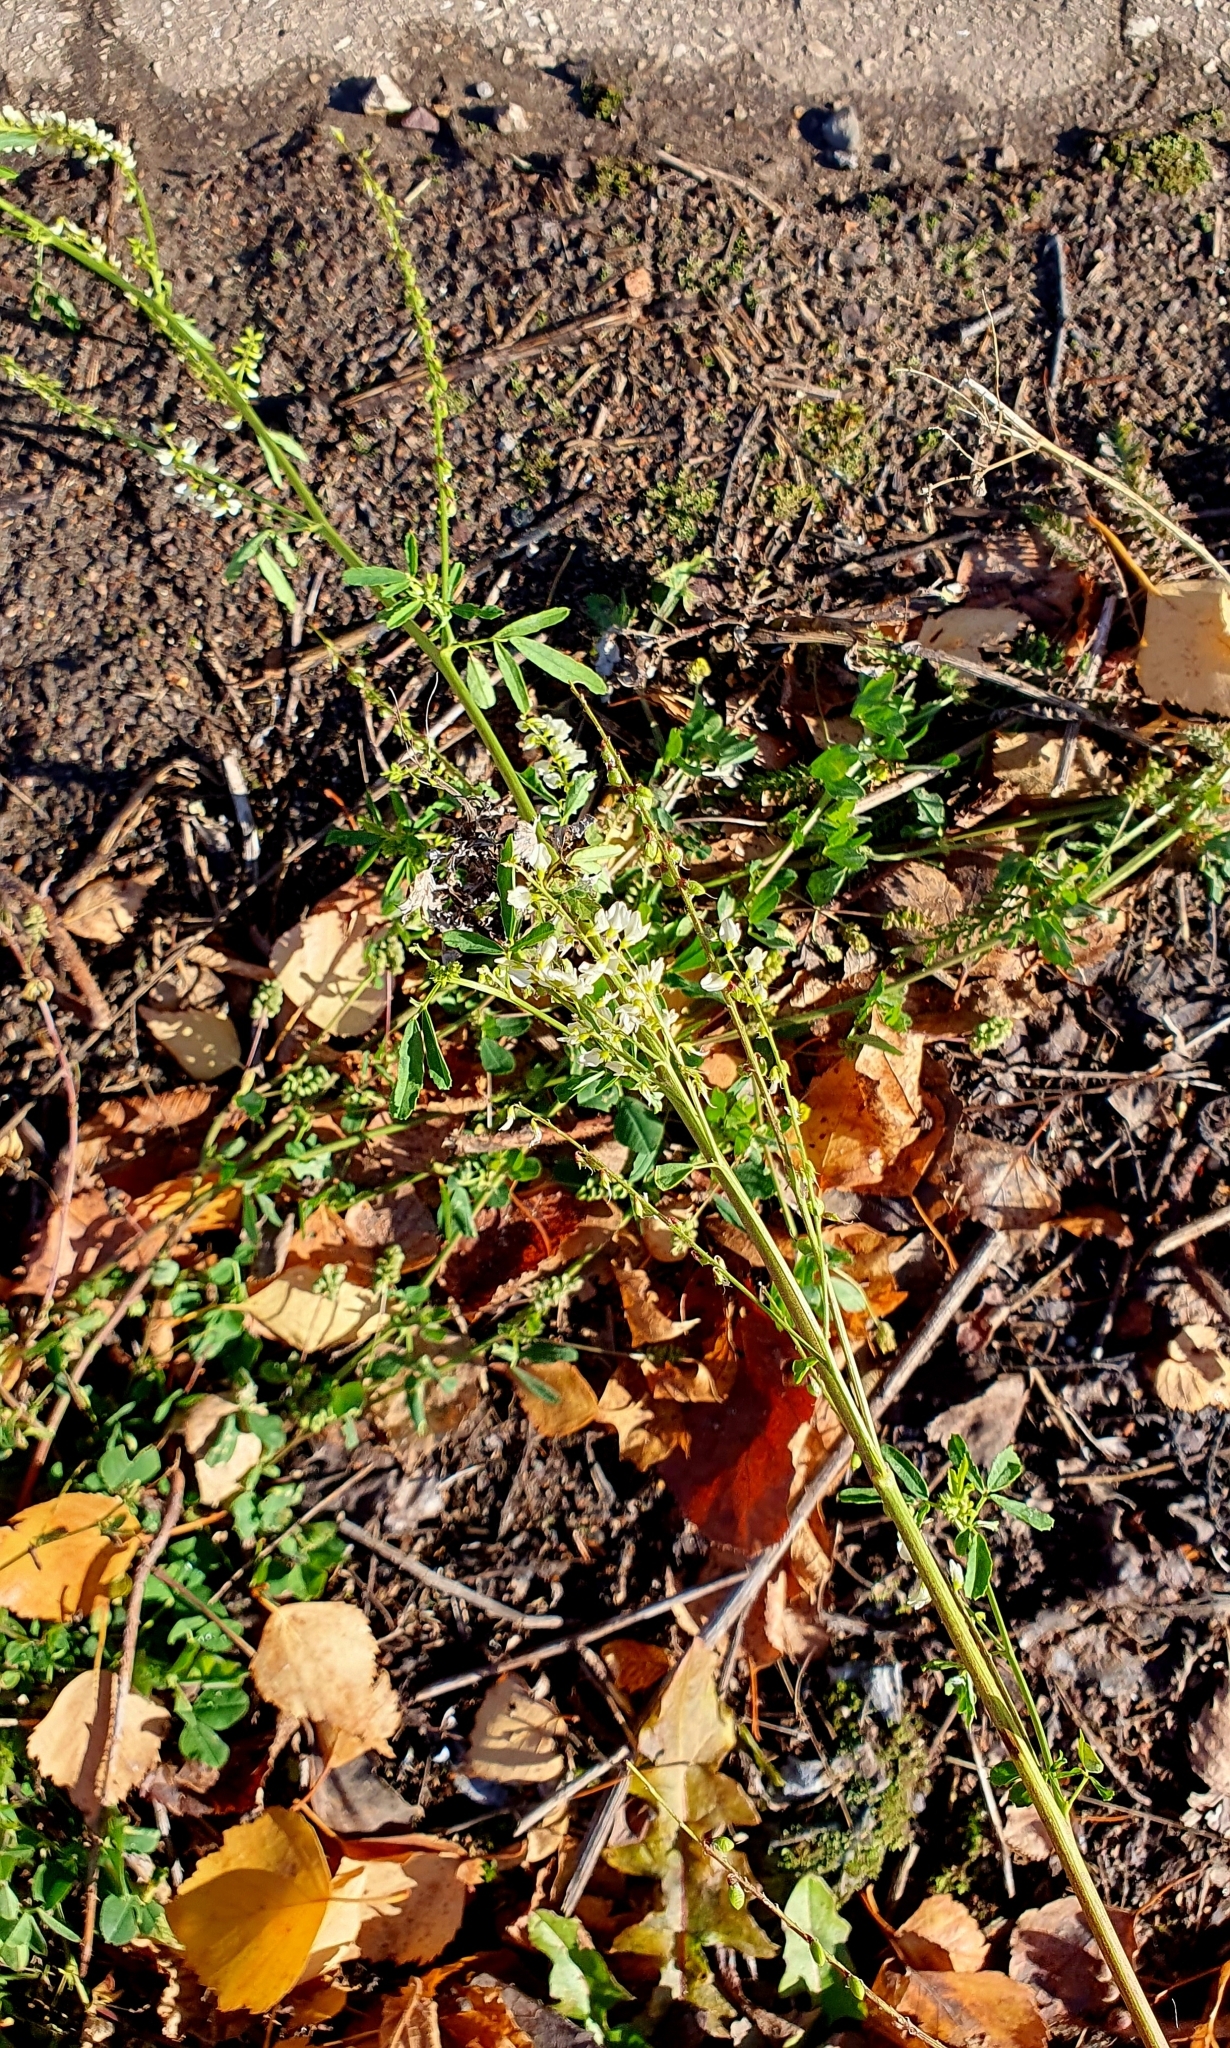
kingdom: Plantae
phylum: Tracheophyta
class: Magnoliopsida
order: Fabales
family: Fabaceae
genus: Melilotus
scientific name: Melilotus albus
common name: White melilot
